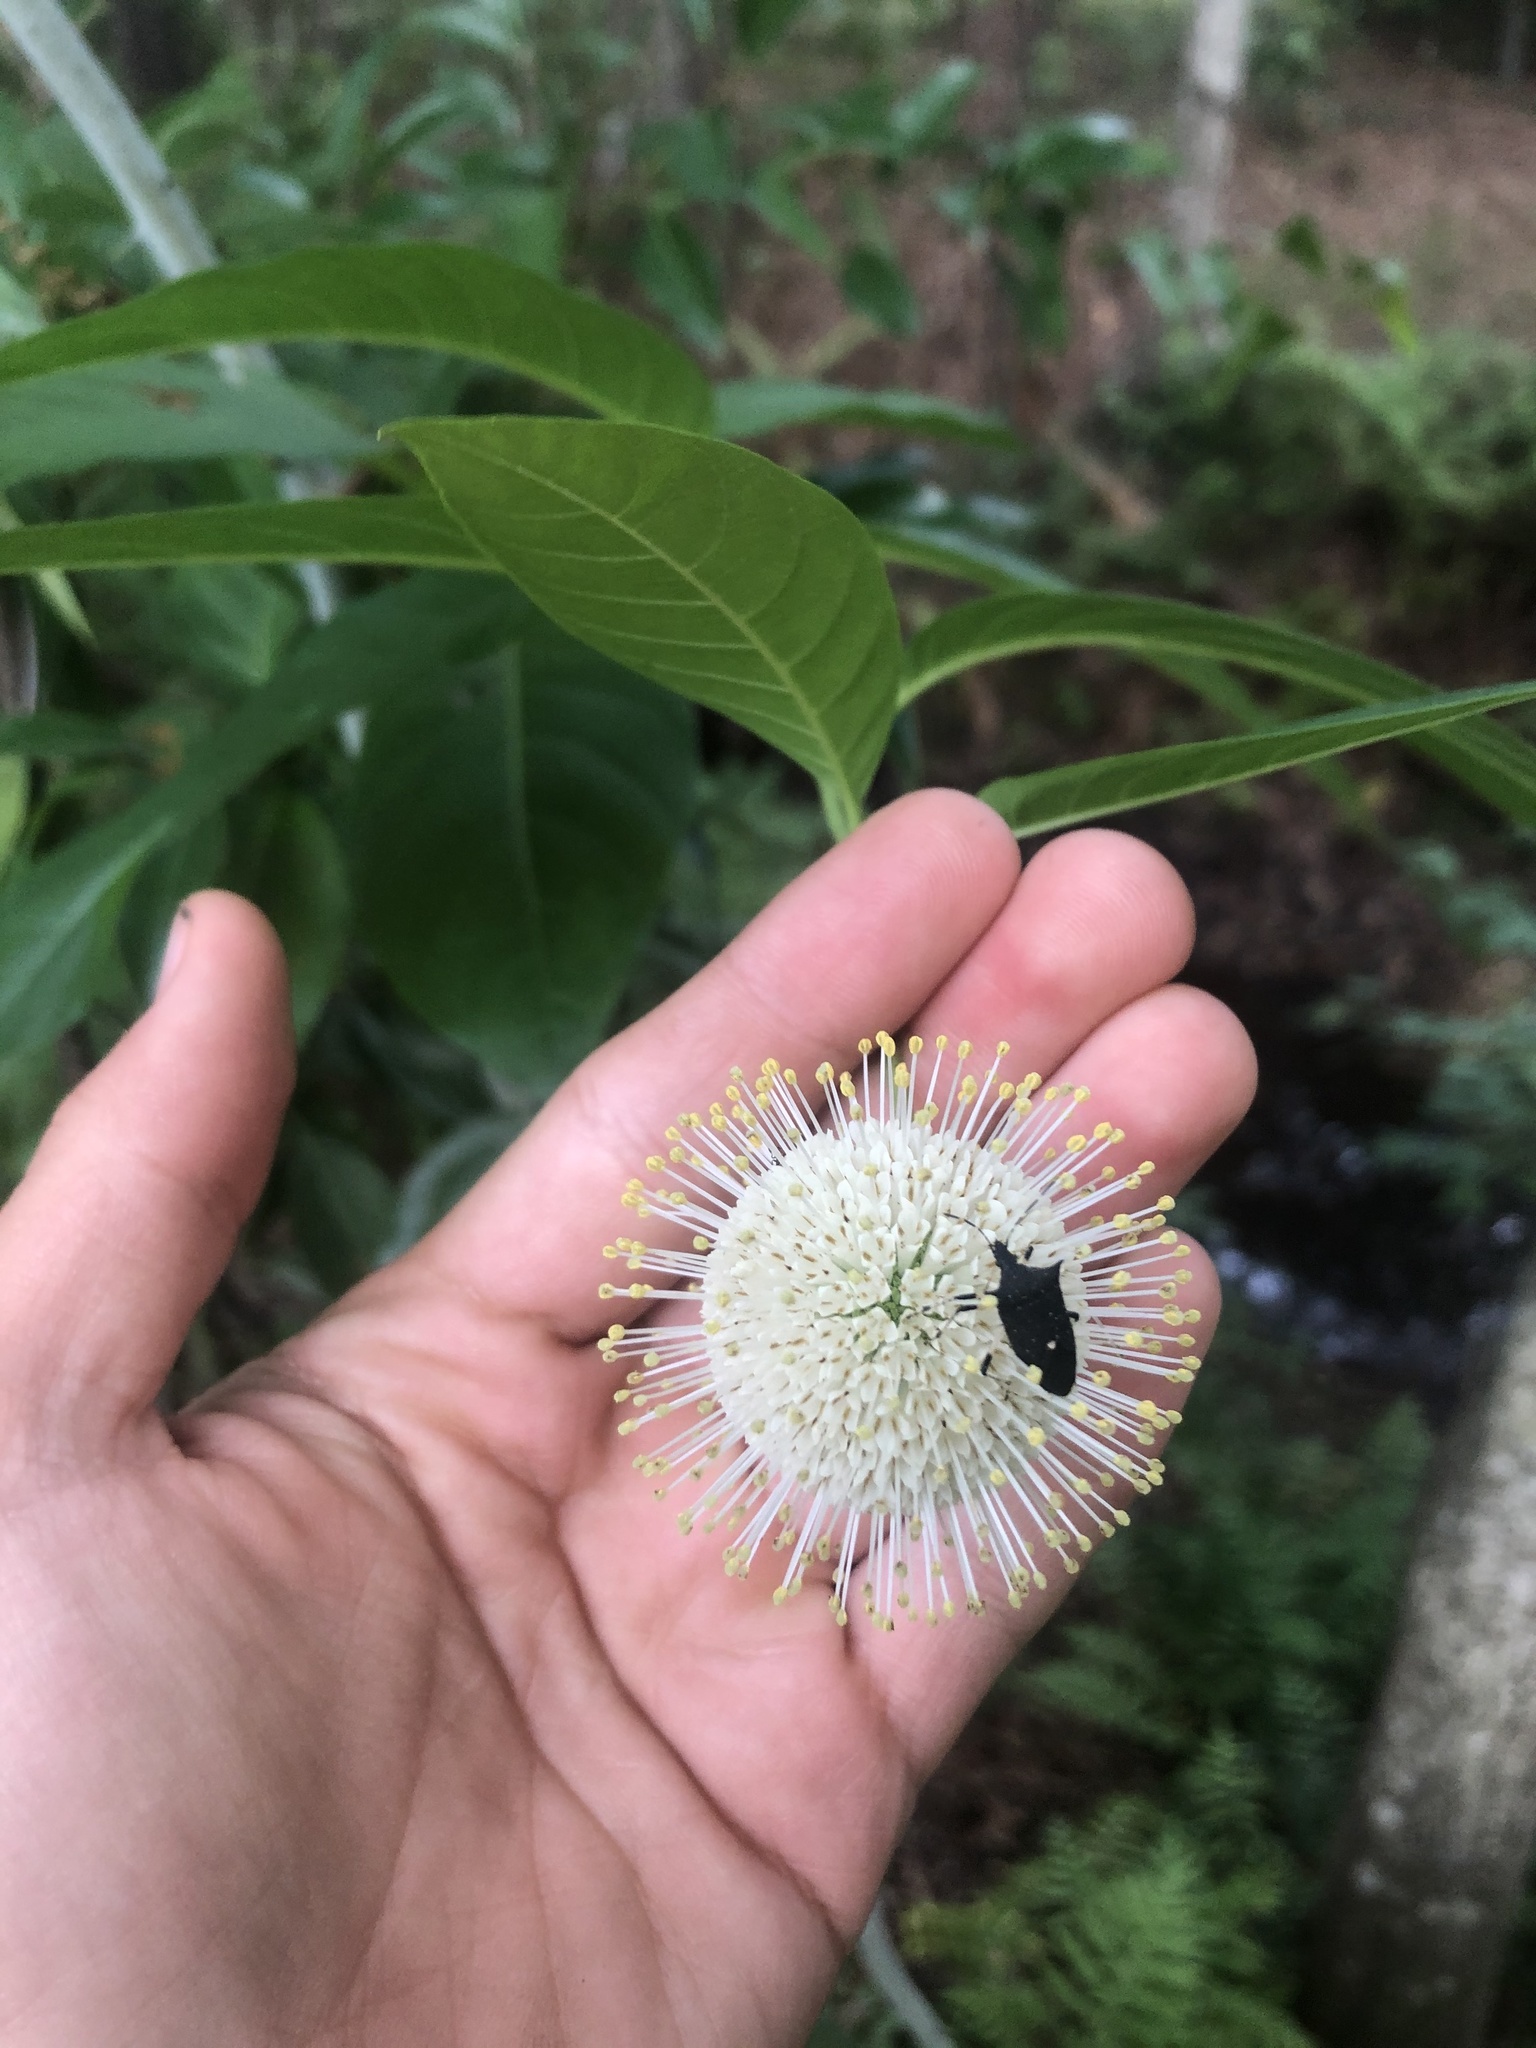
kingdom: Plantae
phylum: Tracheophyta
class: Magnoliopsida
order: Gentianales
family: Rubiaceae
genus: Cephalanthus
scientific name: Cephalanthus occidentalis
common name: Button-willow
